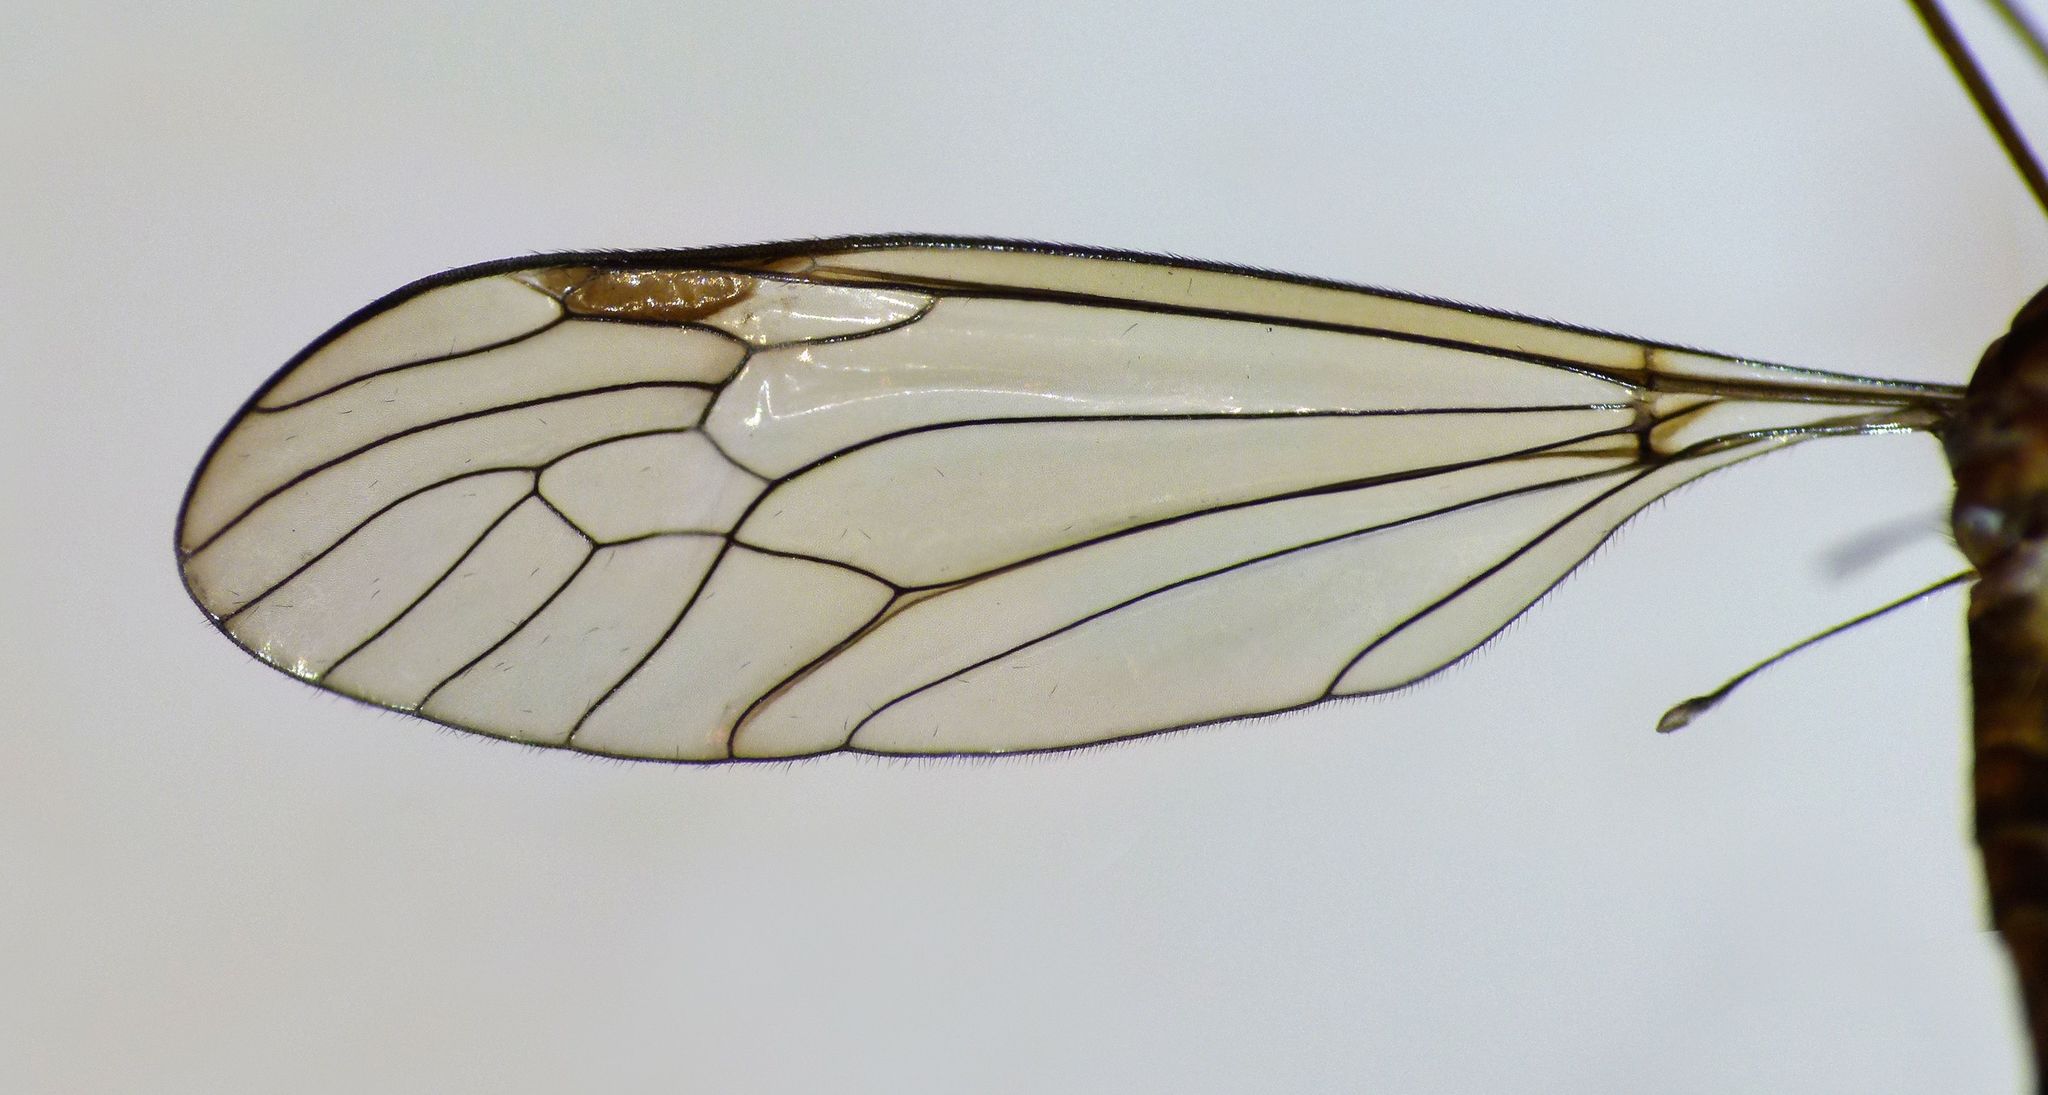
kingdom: Animalia
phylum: Arthropoda
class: Insecta
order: Diptera
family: Tipulidae
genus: Leptotarsus
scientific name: Leptotarsus obliquus
